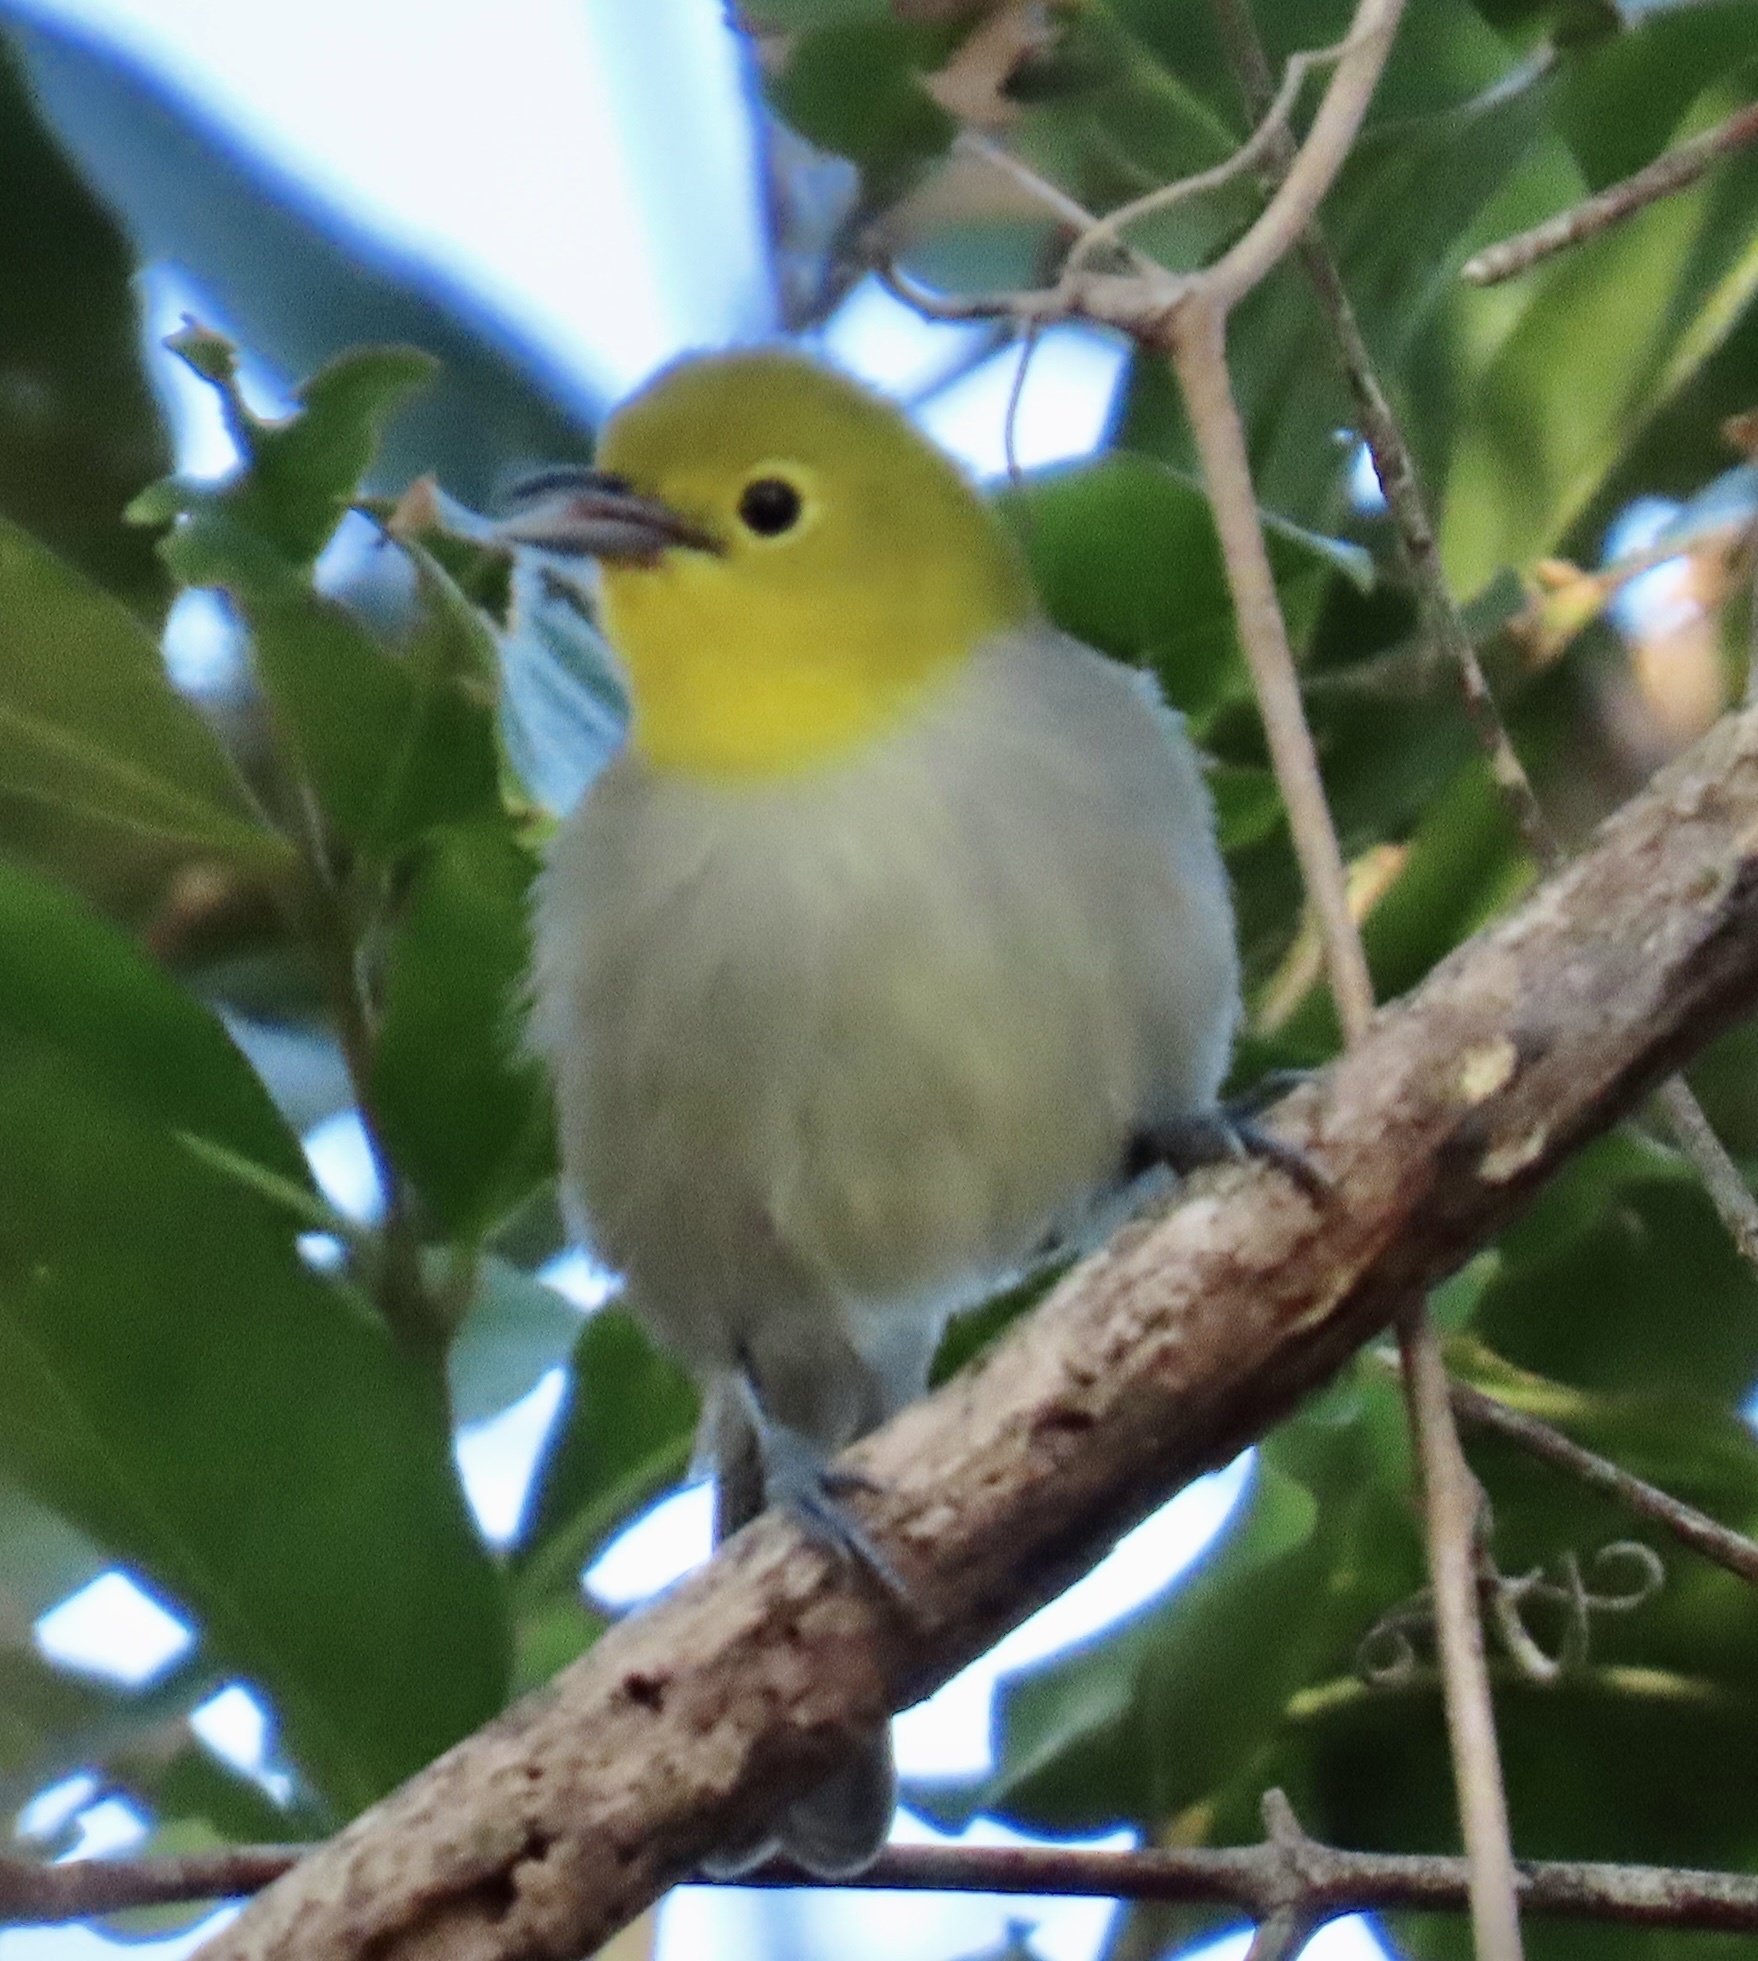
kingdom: Animalia
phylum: Chordata
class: Aves
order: Passeriformes
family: Parulidae
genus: Teretistris
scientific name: Teretistris fernandinae
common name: Yellow-headed warbler
